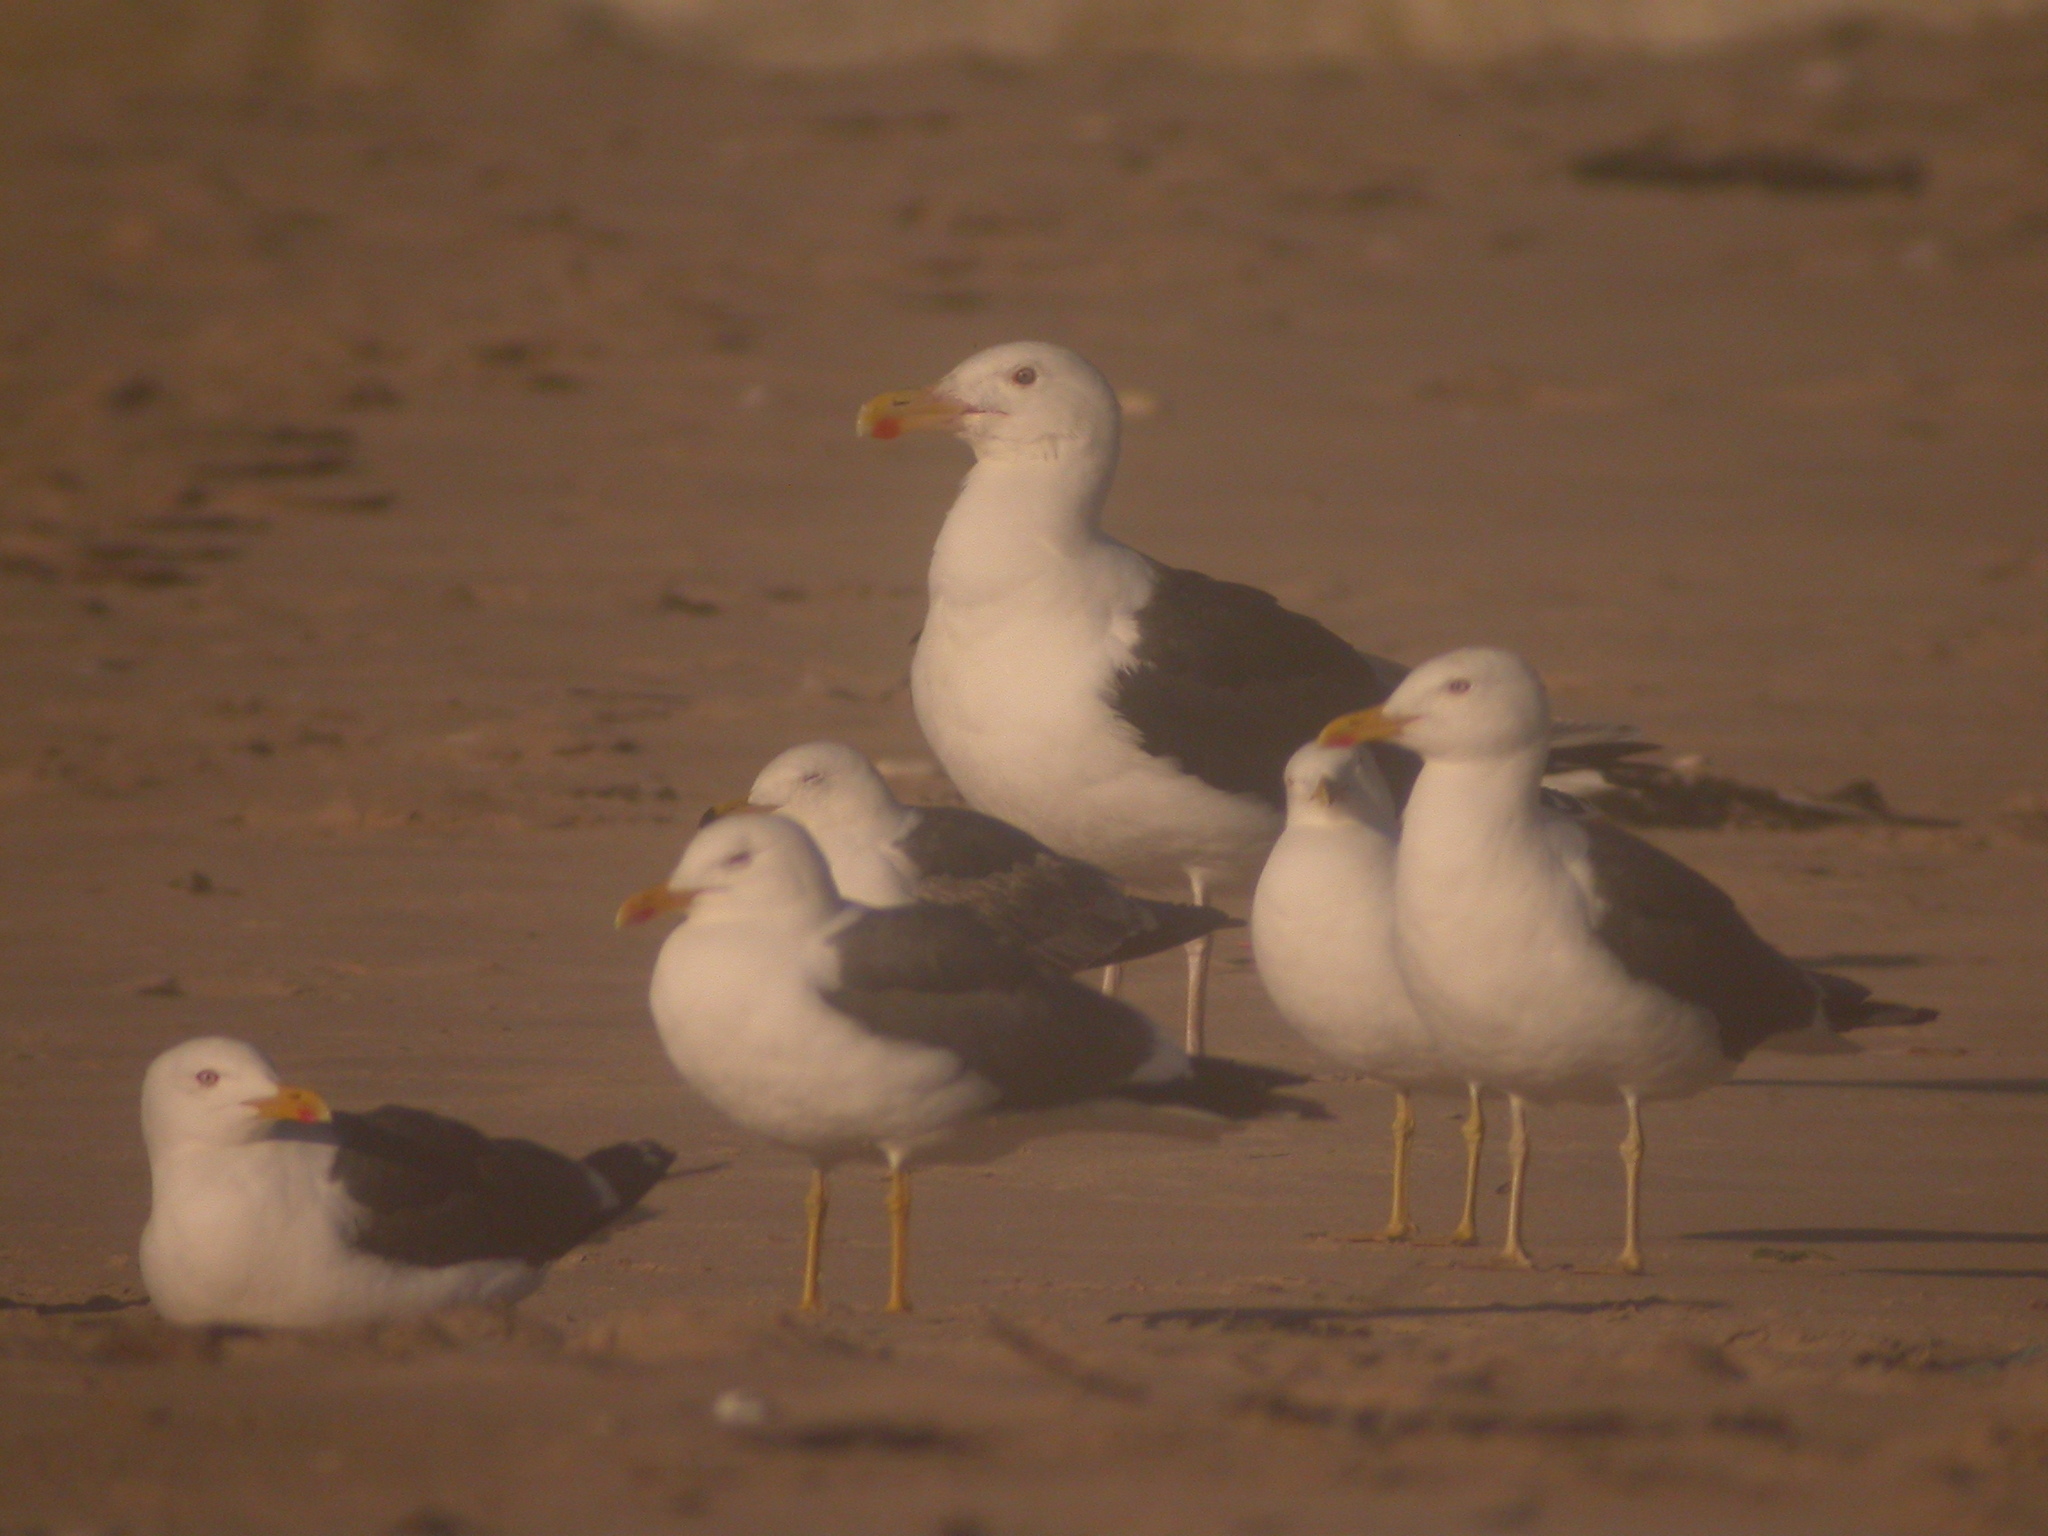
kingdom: Animalia
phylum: Chordata
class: Aves
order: Charadriiformes
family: Laridae
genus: Larus
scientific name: Larus marinus
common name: Great black-backed gull
